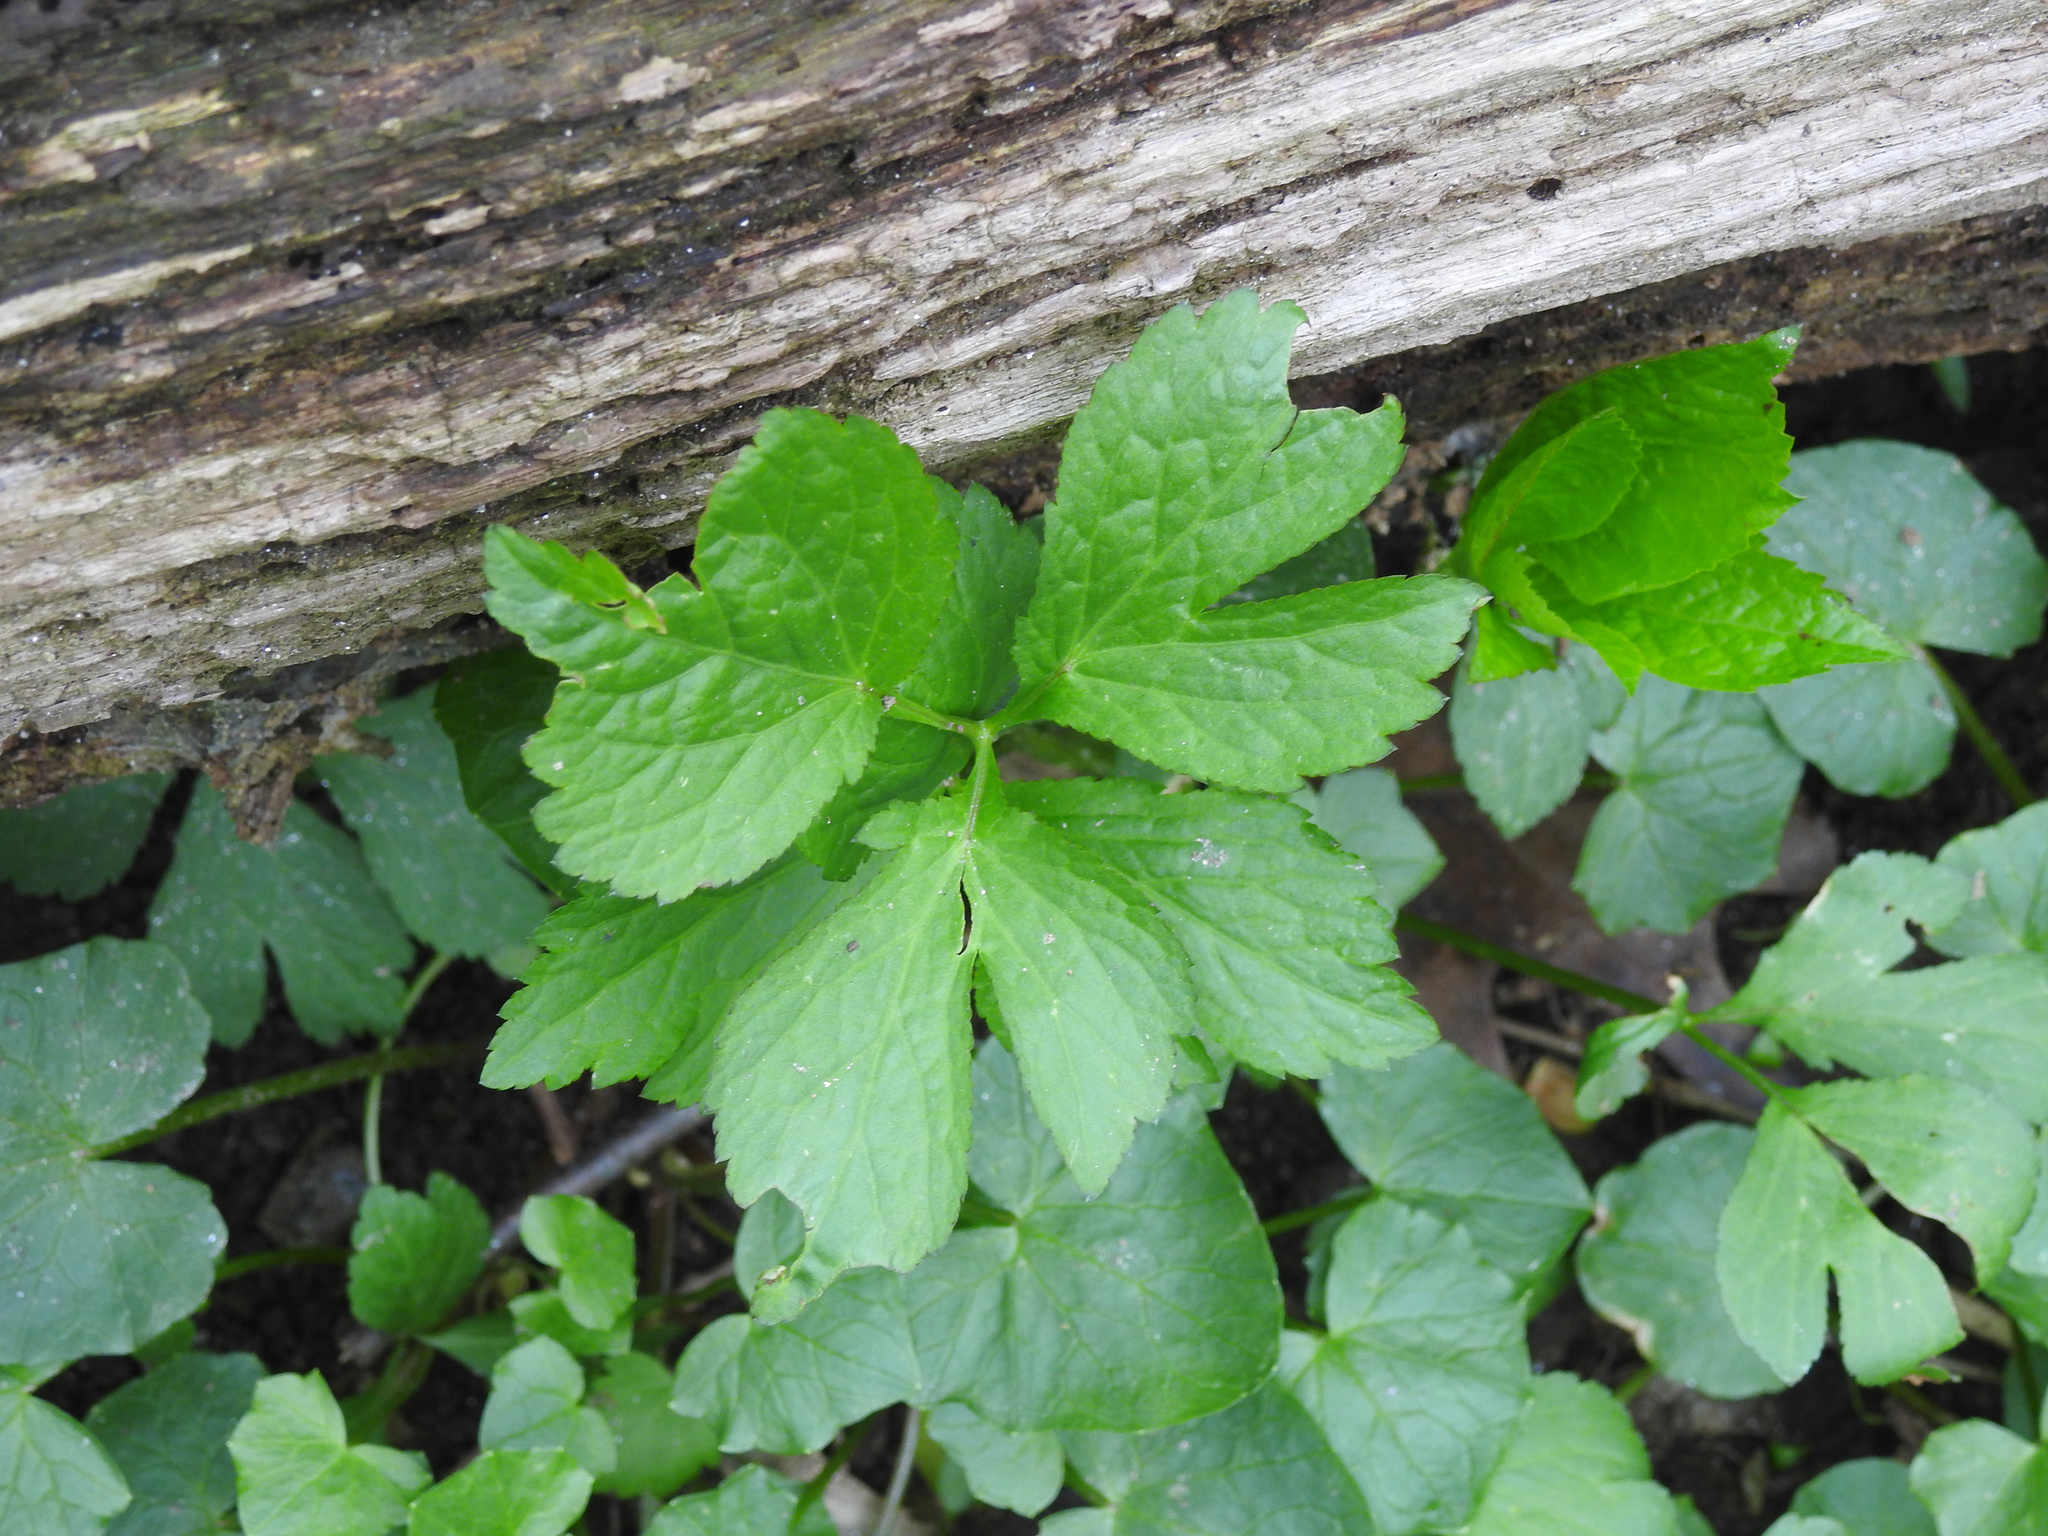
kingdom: Plantae
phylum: Tracheophyta
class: Magnoliopsida
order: Apiales
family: Apiaceae
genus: Cryptotaenia
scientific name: Cryptotaenia canadensis
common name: Honewort
